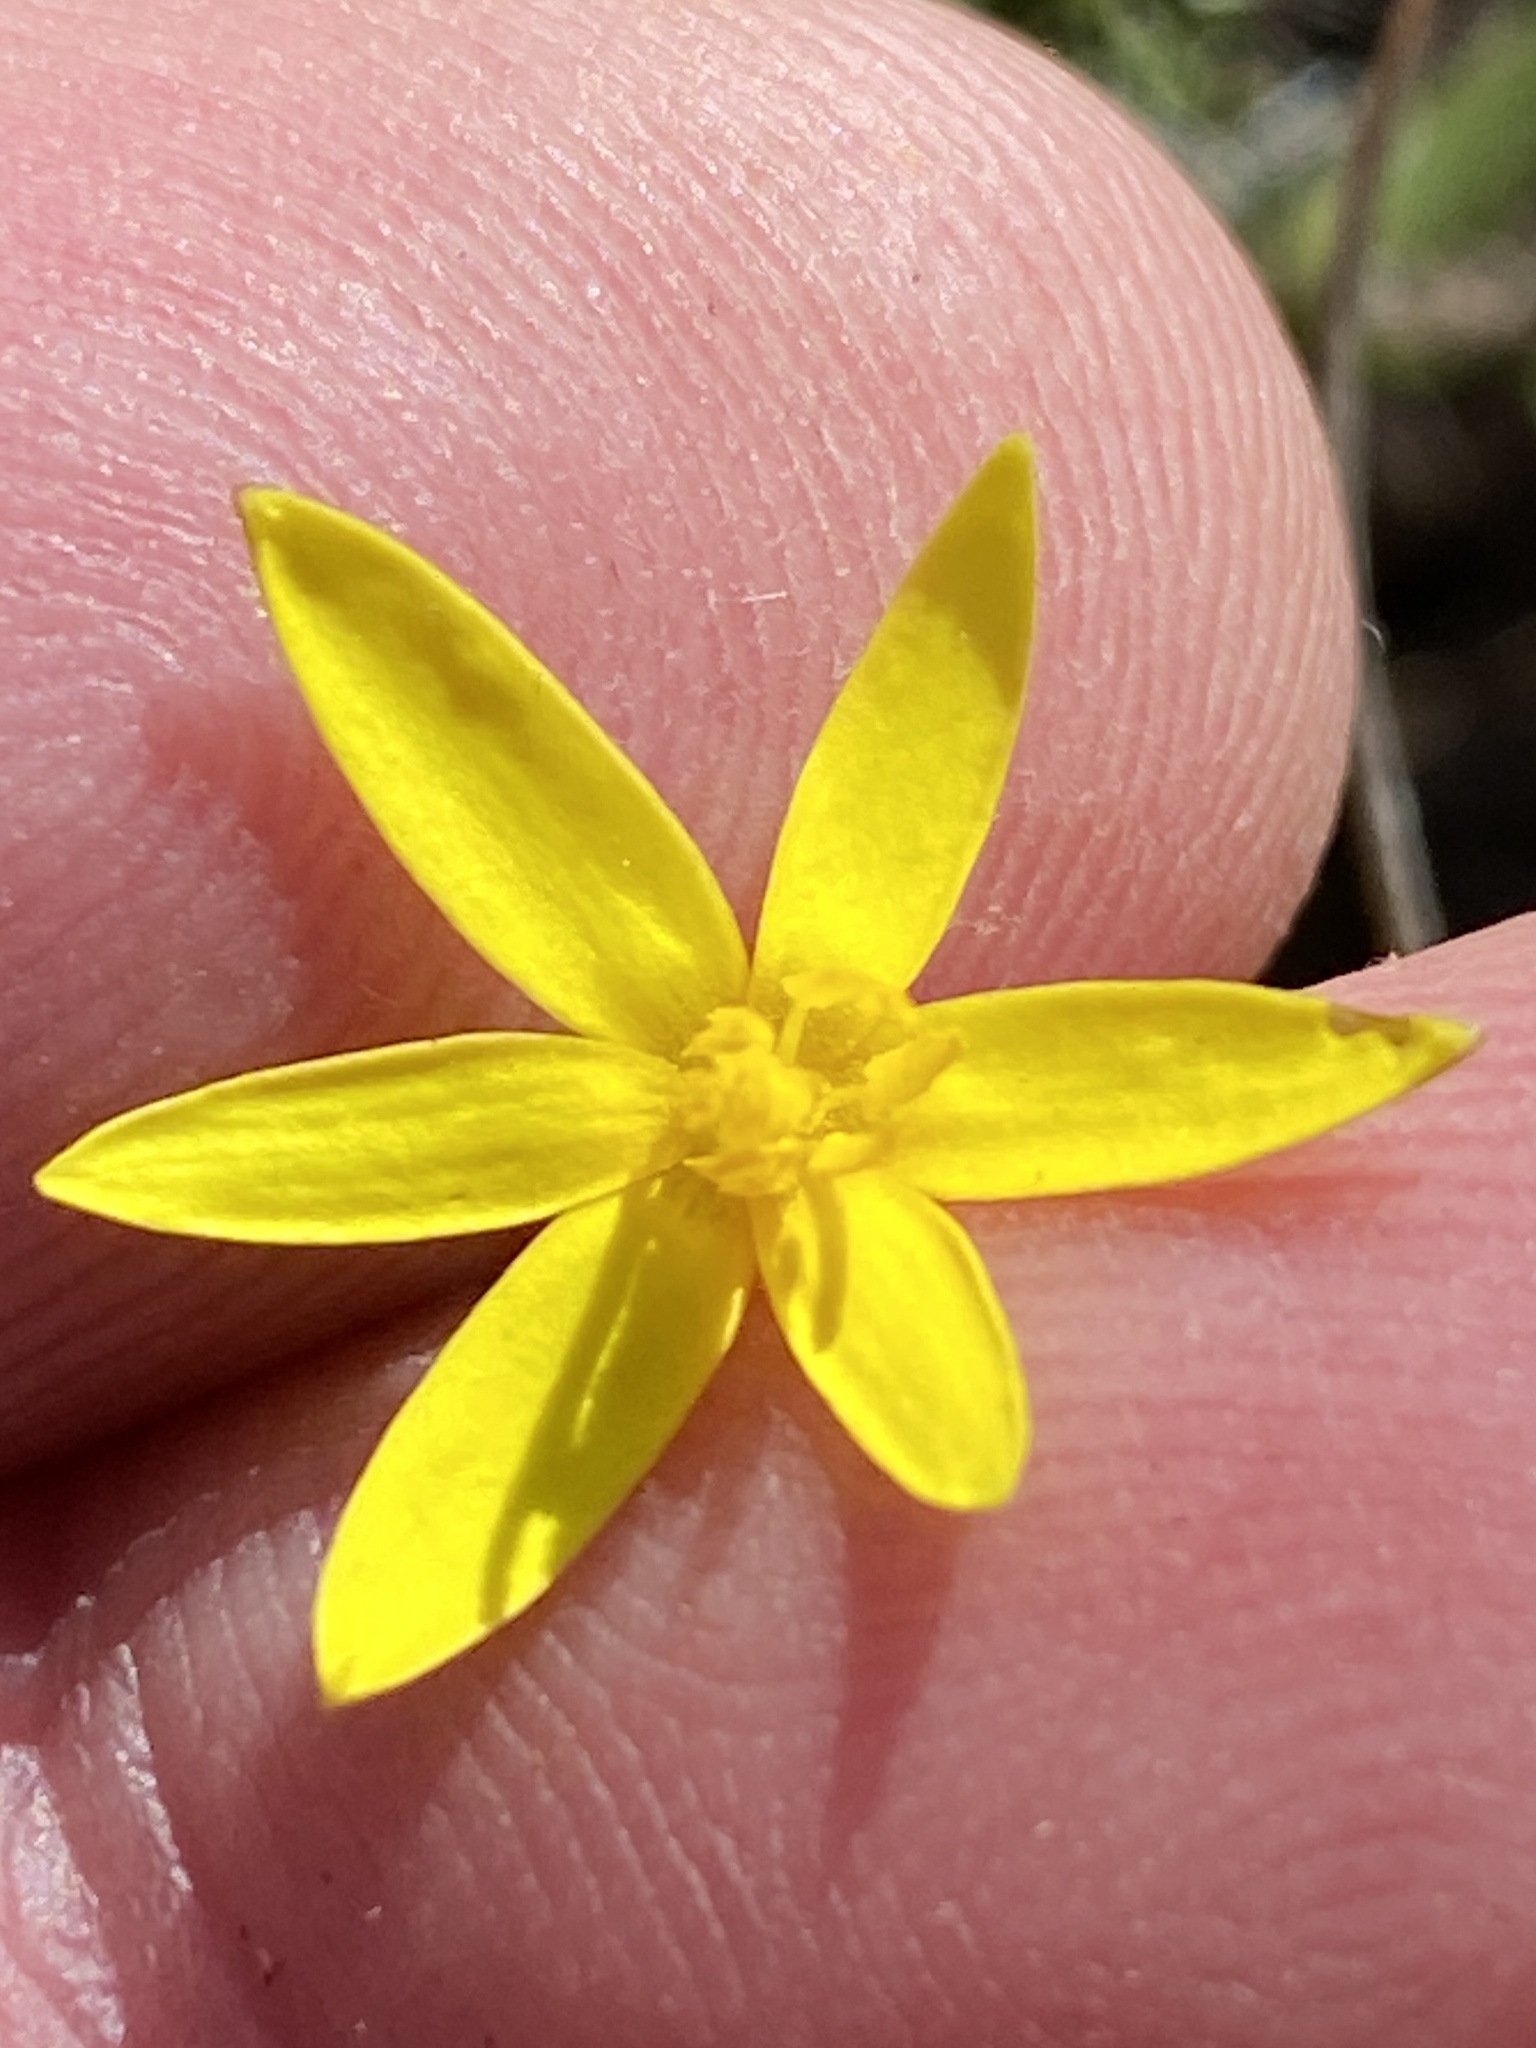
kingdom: Plantae
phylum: Tracheophyta
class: Liliopsida
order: Asparagales
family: Hypoxidaceae
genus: Empodium
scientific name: Empodium plicatum
